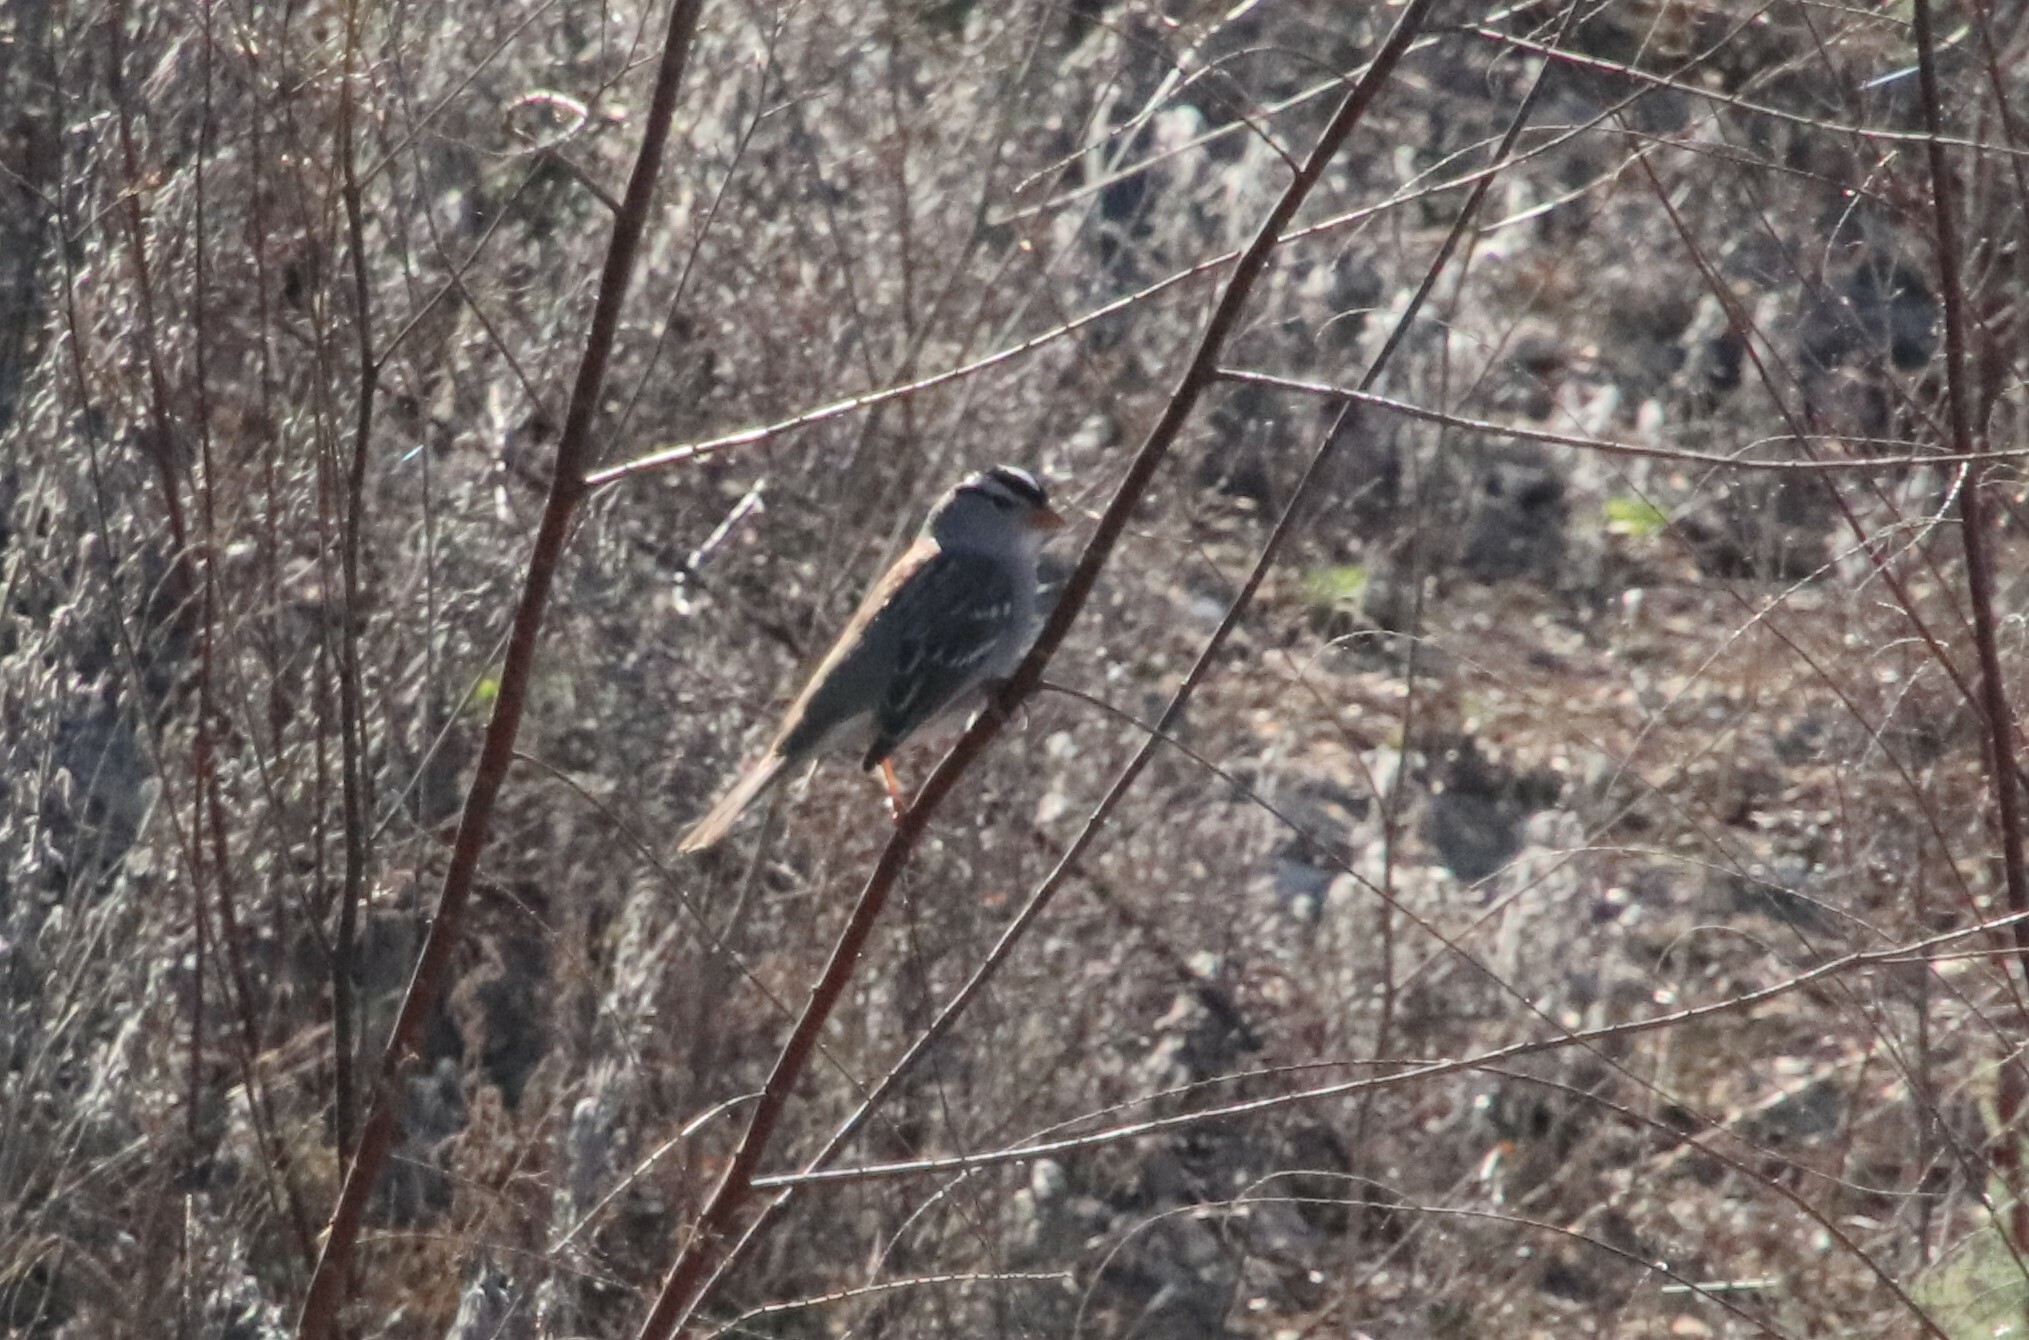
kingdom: Animalia
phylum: Chordata
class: Aves
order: Passeriformes
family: Passerellidae
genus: Zonotrichia
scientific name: Zonotrichia leucophrys
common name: White-crowned sparrow
